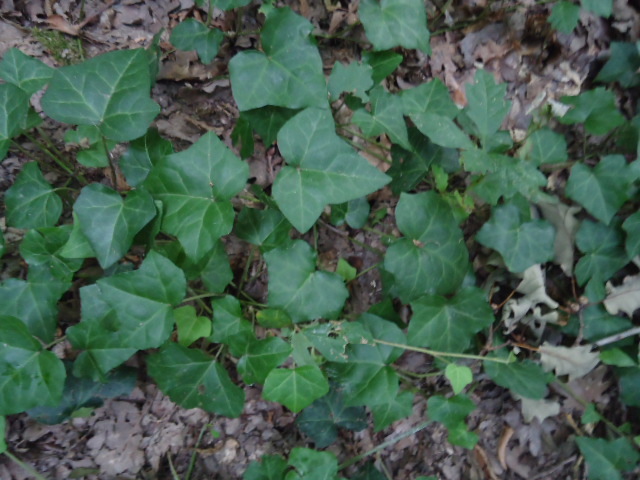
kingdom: Plantae
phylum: Tracheophyta
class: Magnoliopsida
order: Apiales
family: Araliaceae
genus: Hedera
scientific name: Hedera helix
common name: Ivy
